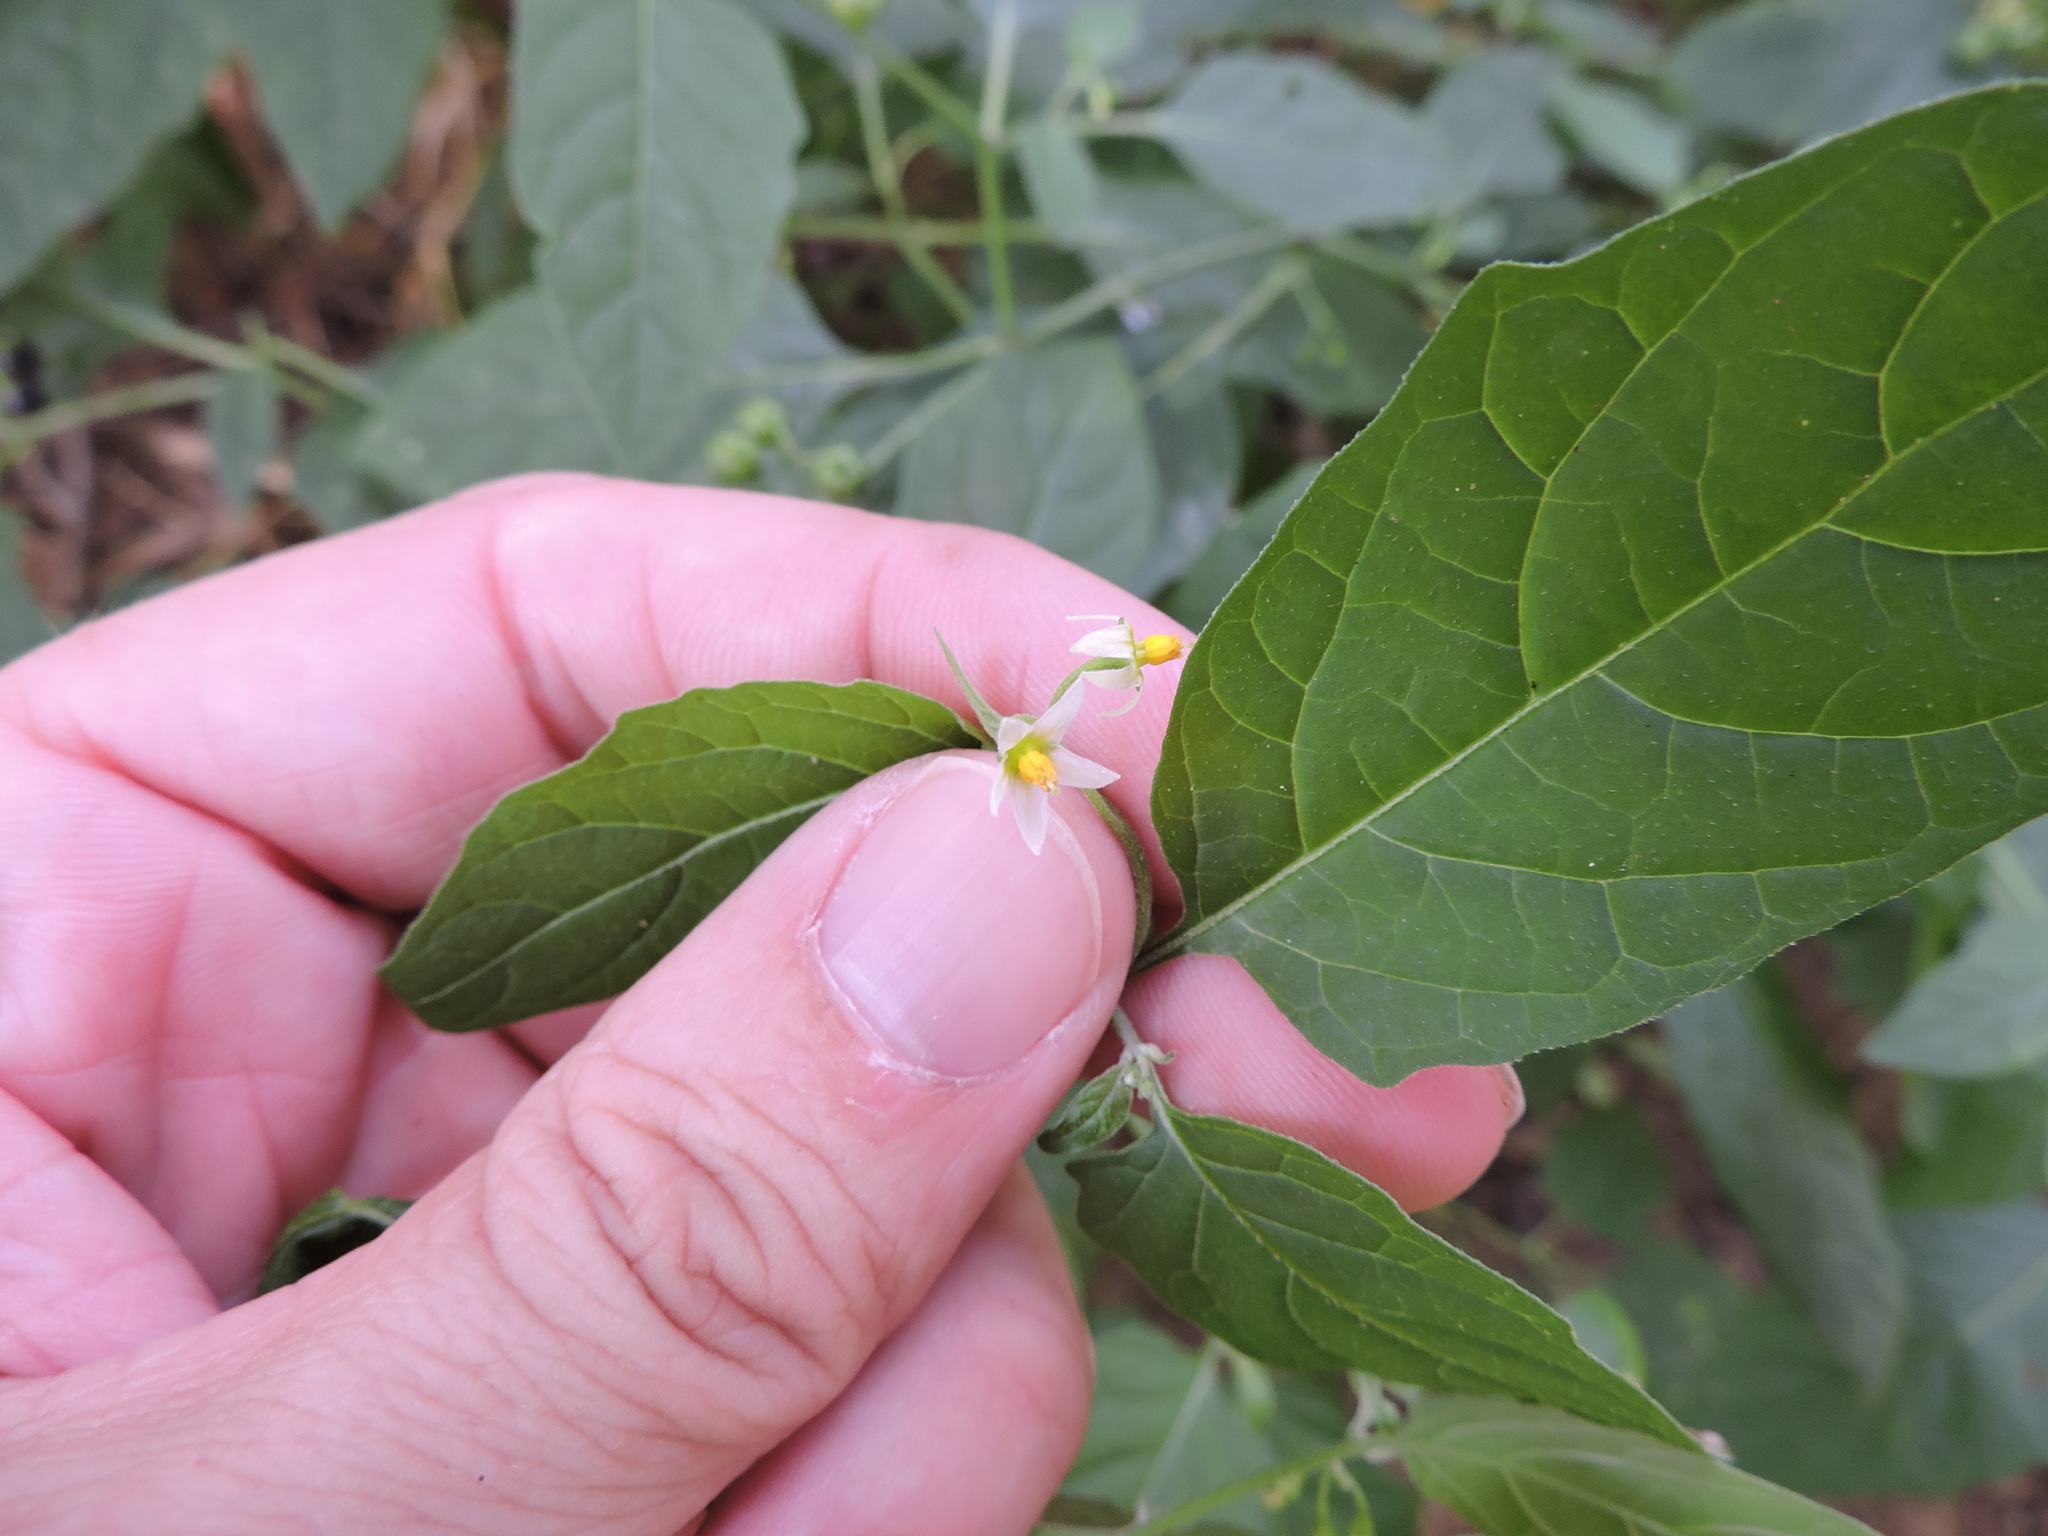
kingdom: Plantae
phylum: Tracheophyta
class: Magnoliopsida
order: Solanales
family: Solanaceae
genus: Solanum
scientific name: Solanum emulans
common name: Eastern black nightshade
